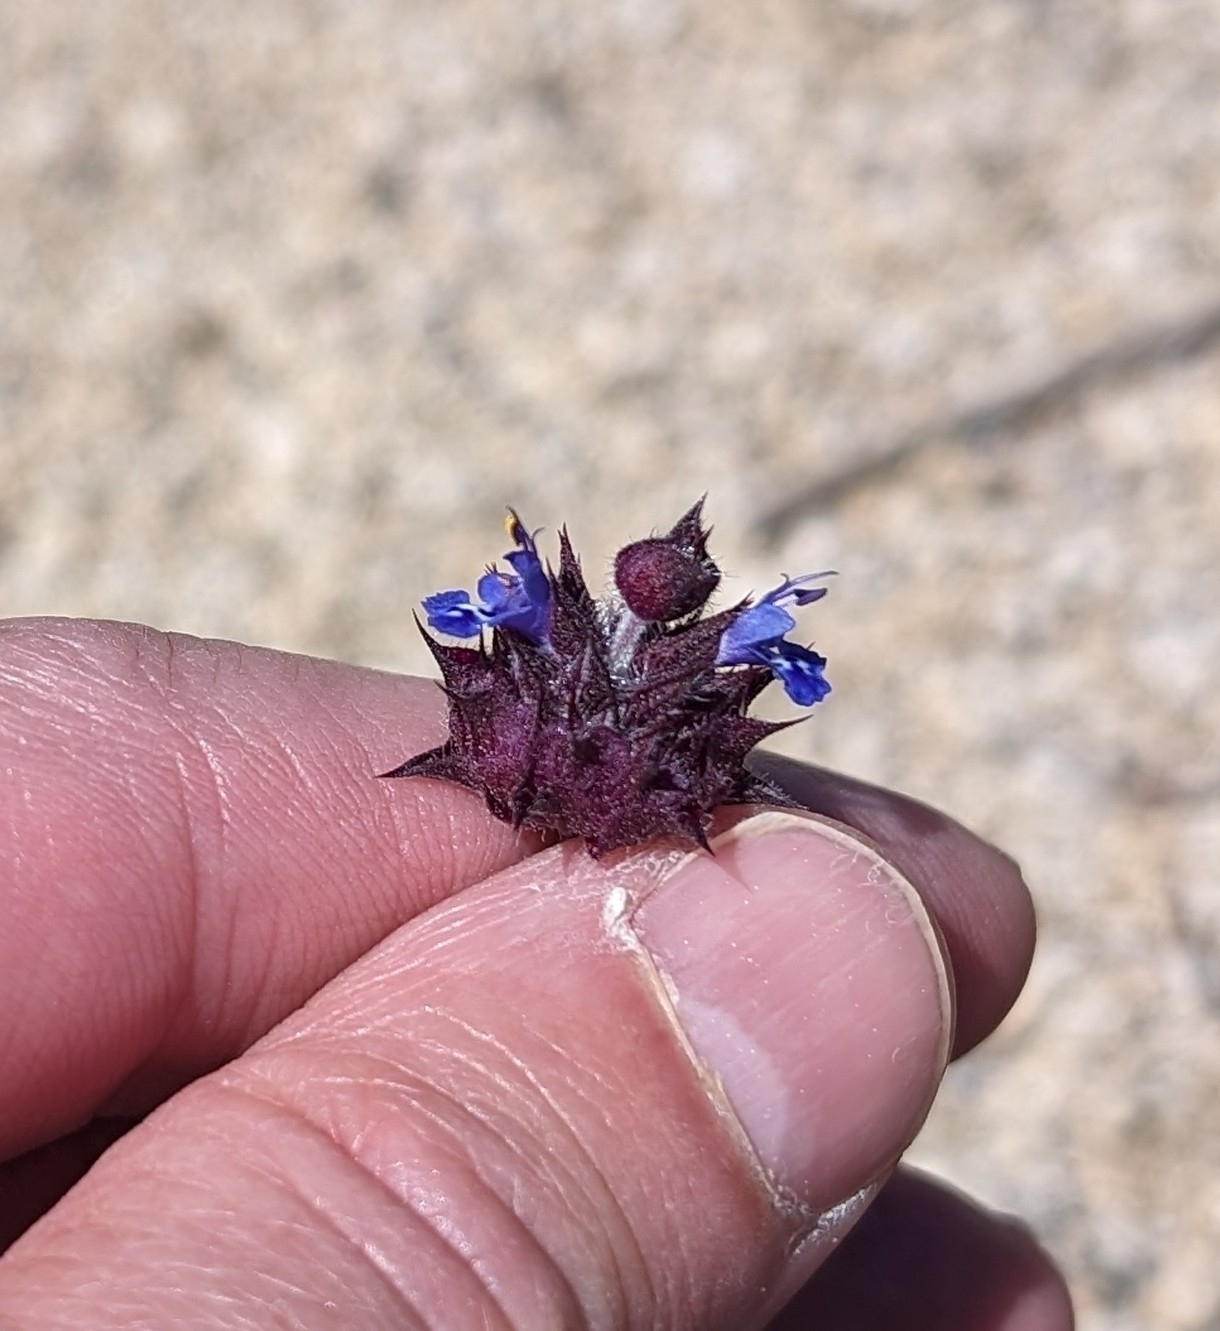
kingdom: Plantae
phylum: Tracheophyta
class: Magnoliopsida
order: Lamiales
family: Lamiaceae
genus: Salvia
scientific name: Salvia columbariae
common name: Chia
